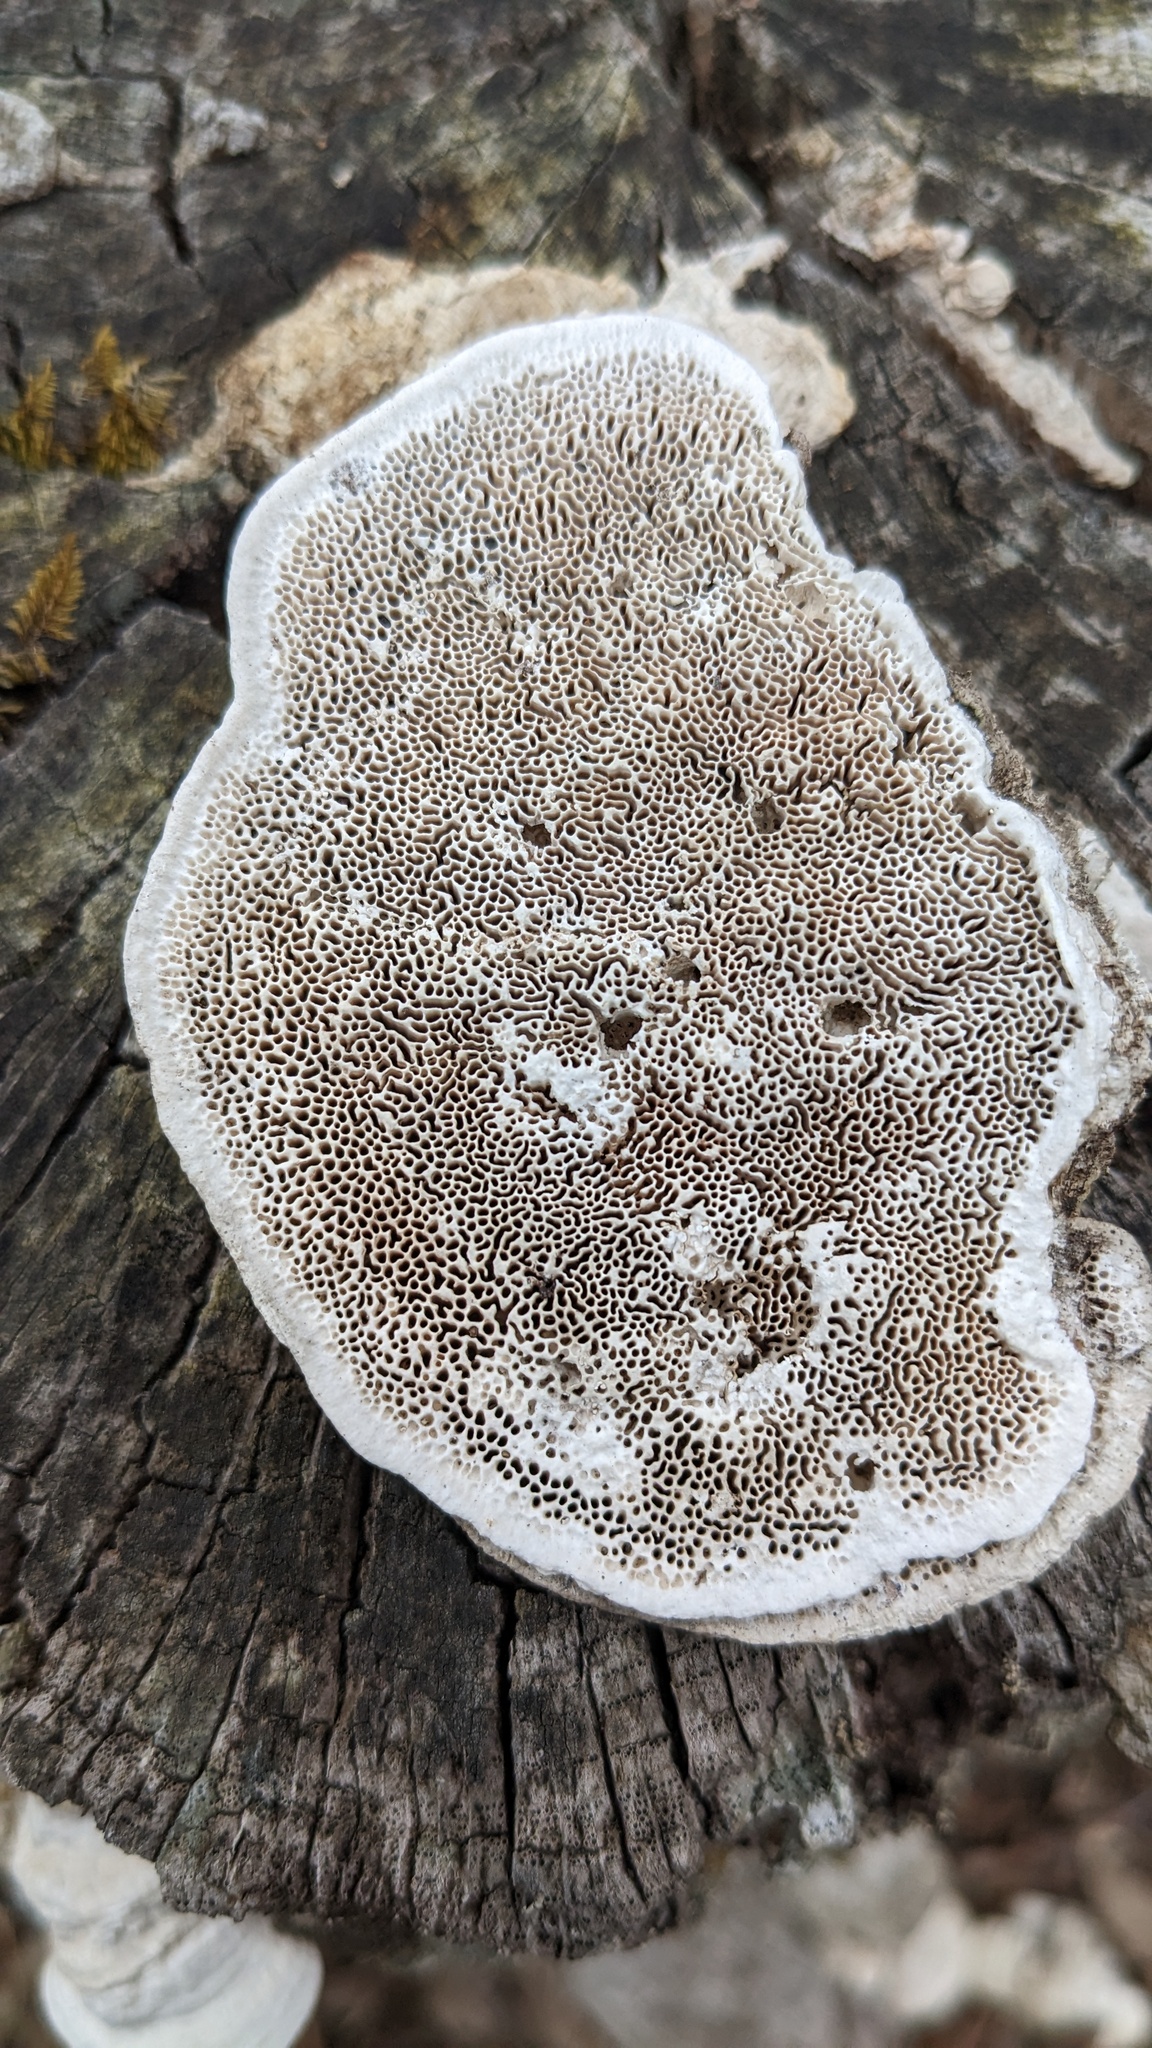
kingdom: Fungi
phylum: Basidiomycota
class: Agaricomycetes
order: Polyporales
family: Fomitopsidaceae
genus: Fomitopsis
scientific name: Fomitopsis
